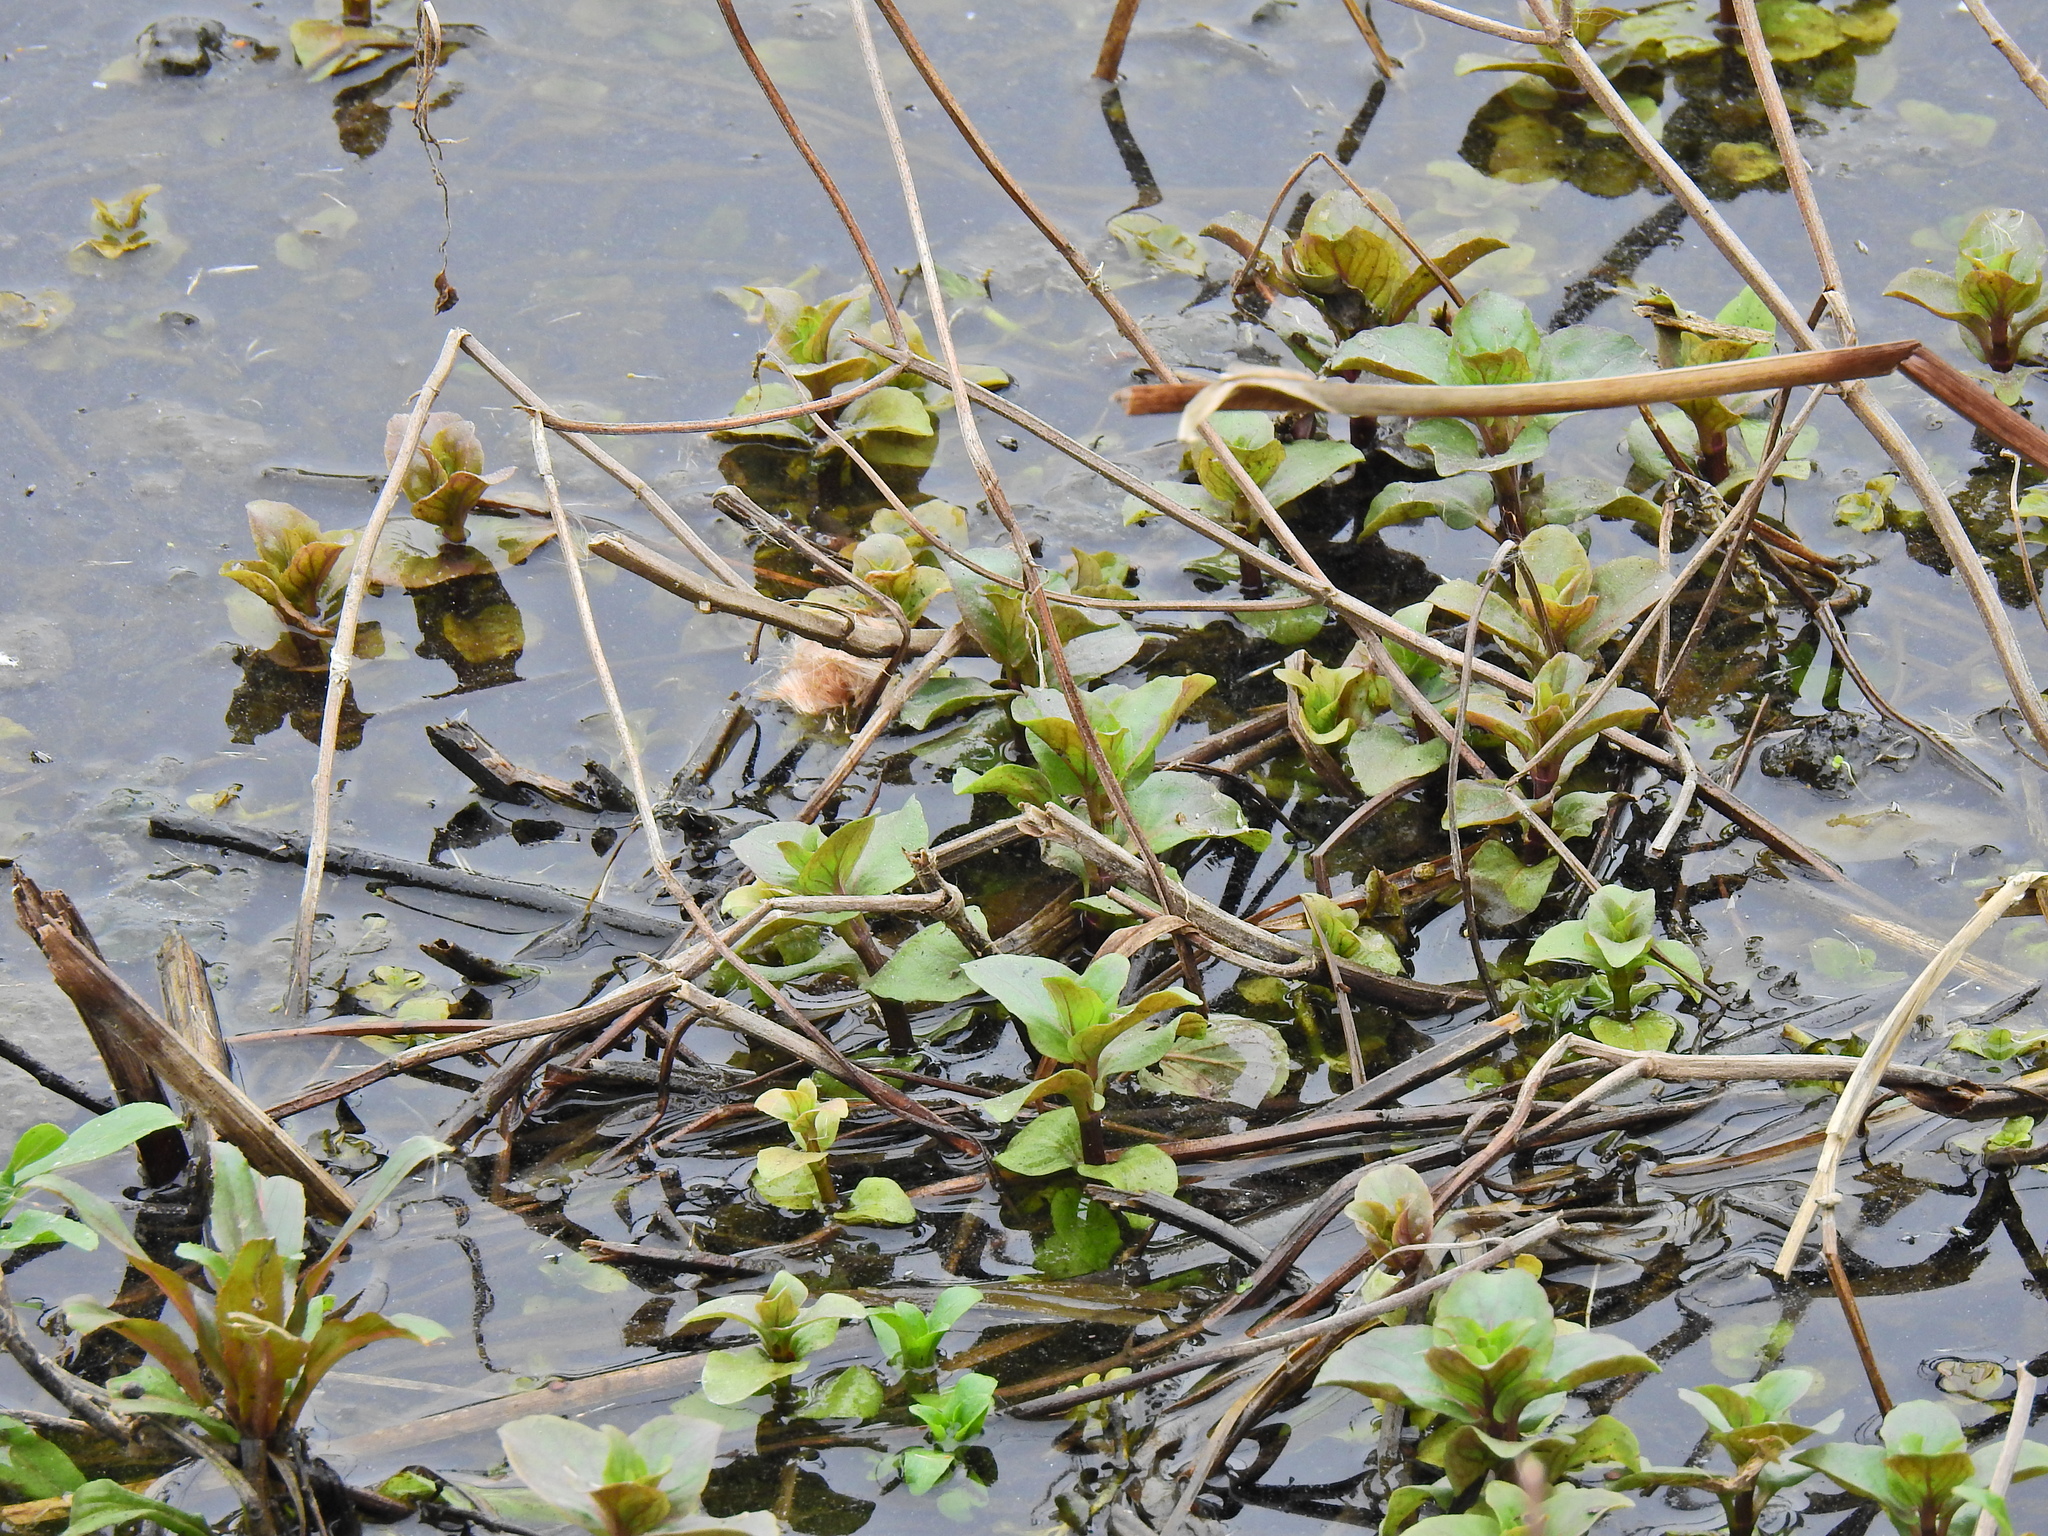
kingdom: Plantae
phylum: Tracheophyta
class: Magnoliopsida
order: Lamiales
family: Lamiaceae
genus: Mentha
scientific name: Mentha aquatica
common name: Water mint
